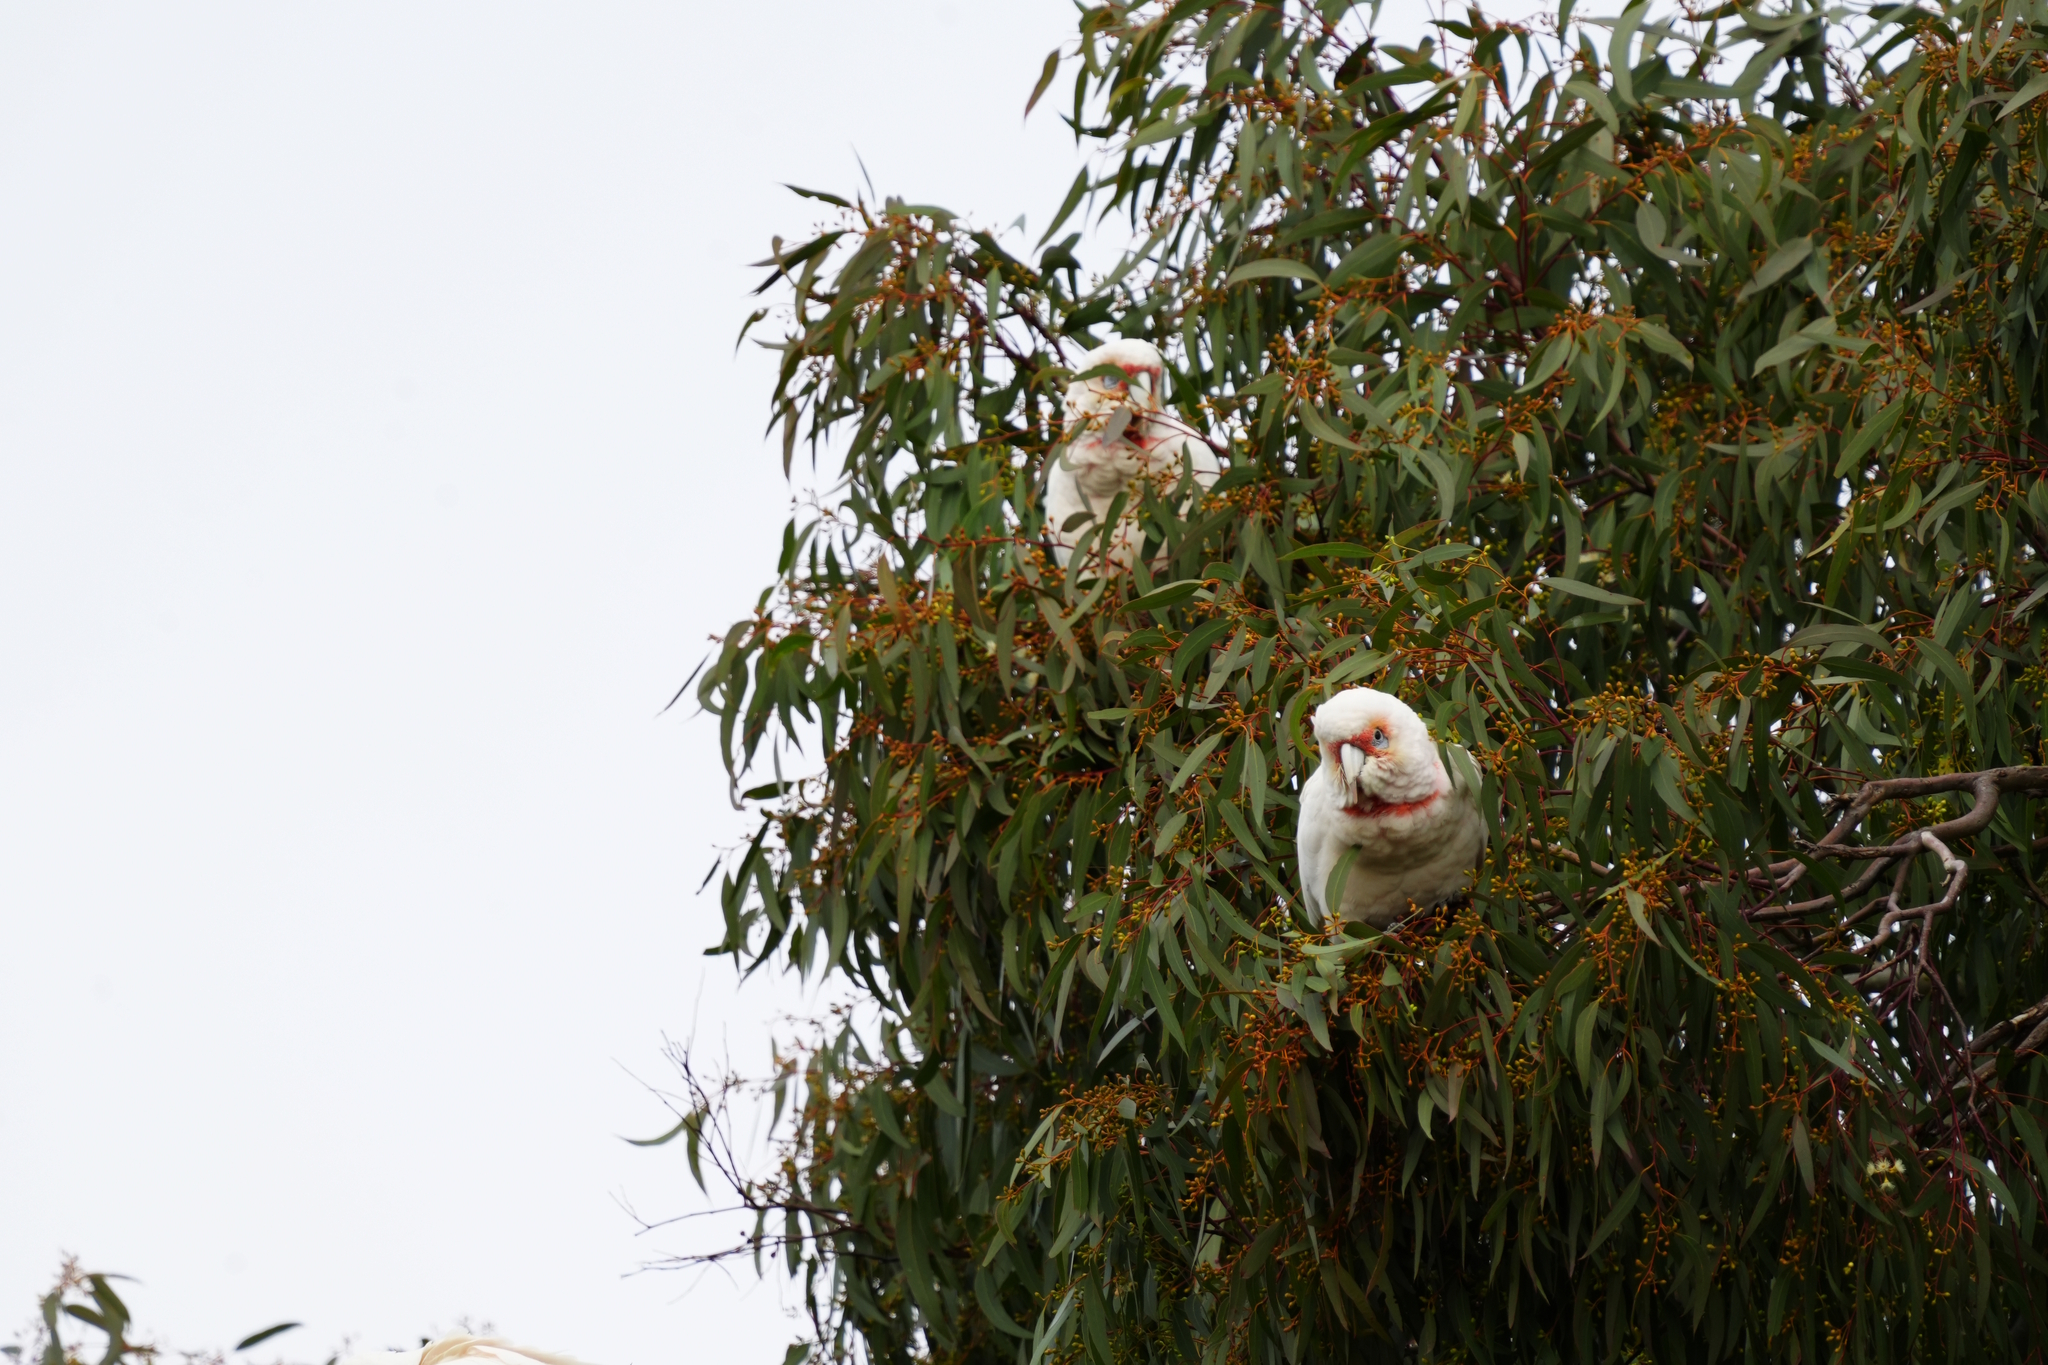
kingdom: Animalia
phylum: Chordata
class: Aves
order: Psittaciformes
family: Psittacidae
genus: Cacatua
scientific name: Cacatua tenuirostris
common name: Long-billed corella
